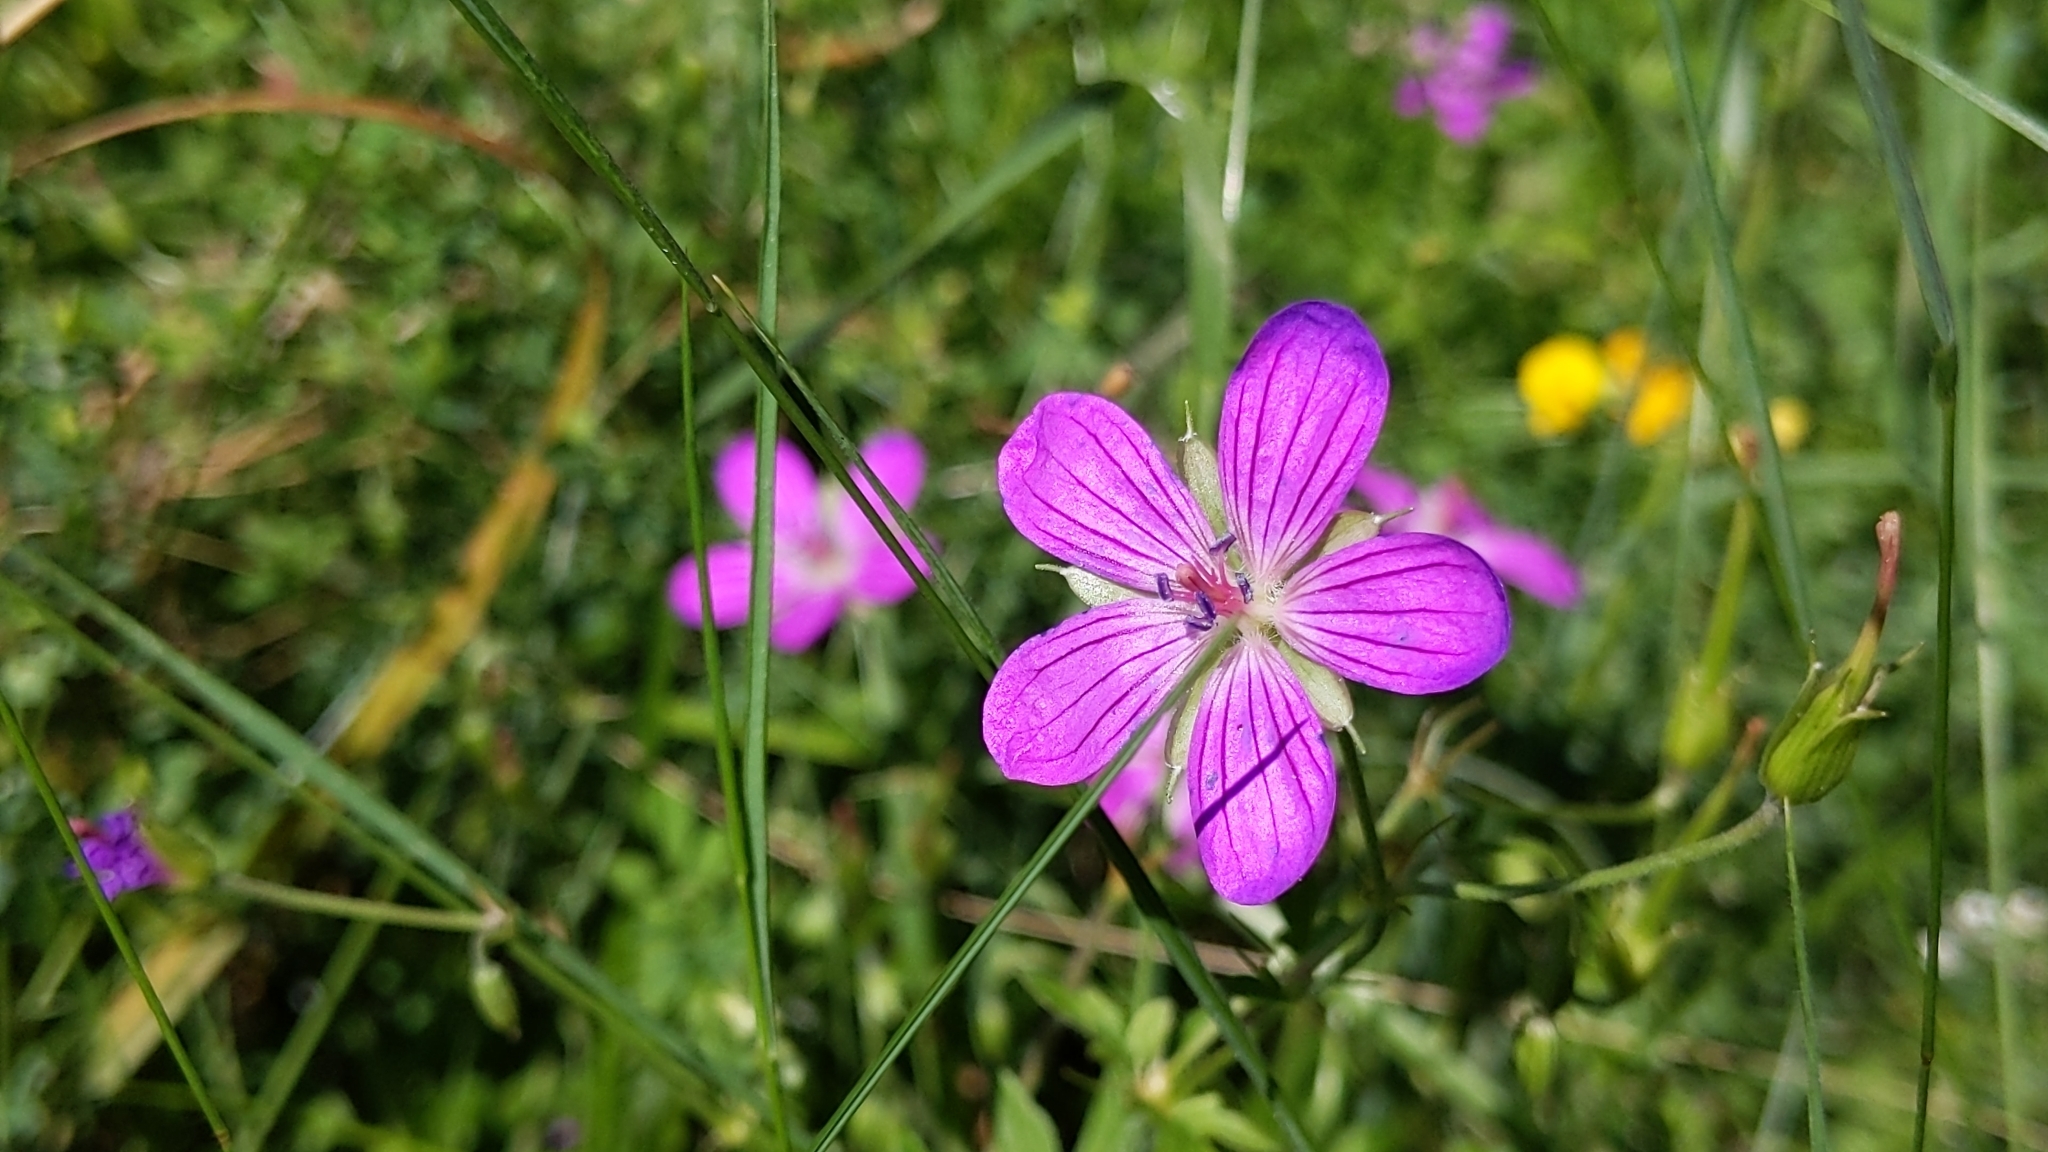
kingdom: Plantae
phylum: Tracheophyta
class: Magnoliopsida
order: Geraniales
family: Geraniaceae
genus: Geranium
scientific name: Geranium palustre
